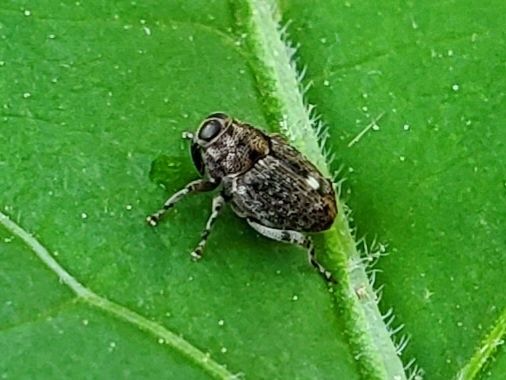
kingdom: Animalia
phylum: Arthropoda
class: Insecta
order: Coleoptera
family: Curculionidae
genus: Lechriops
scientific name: Lechriops oculatus
